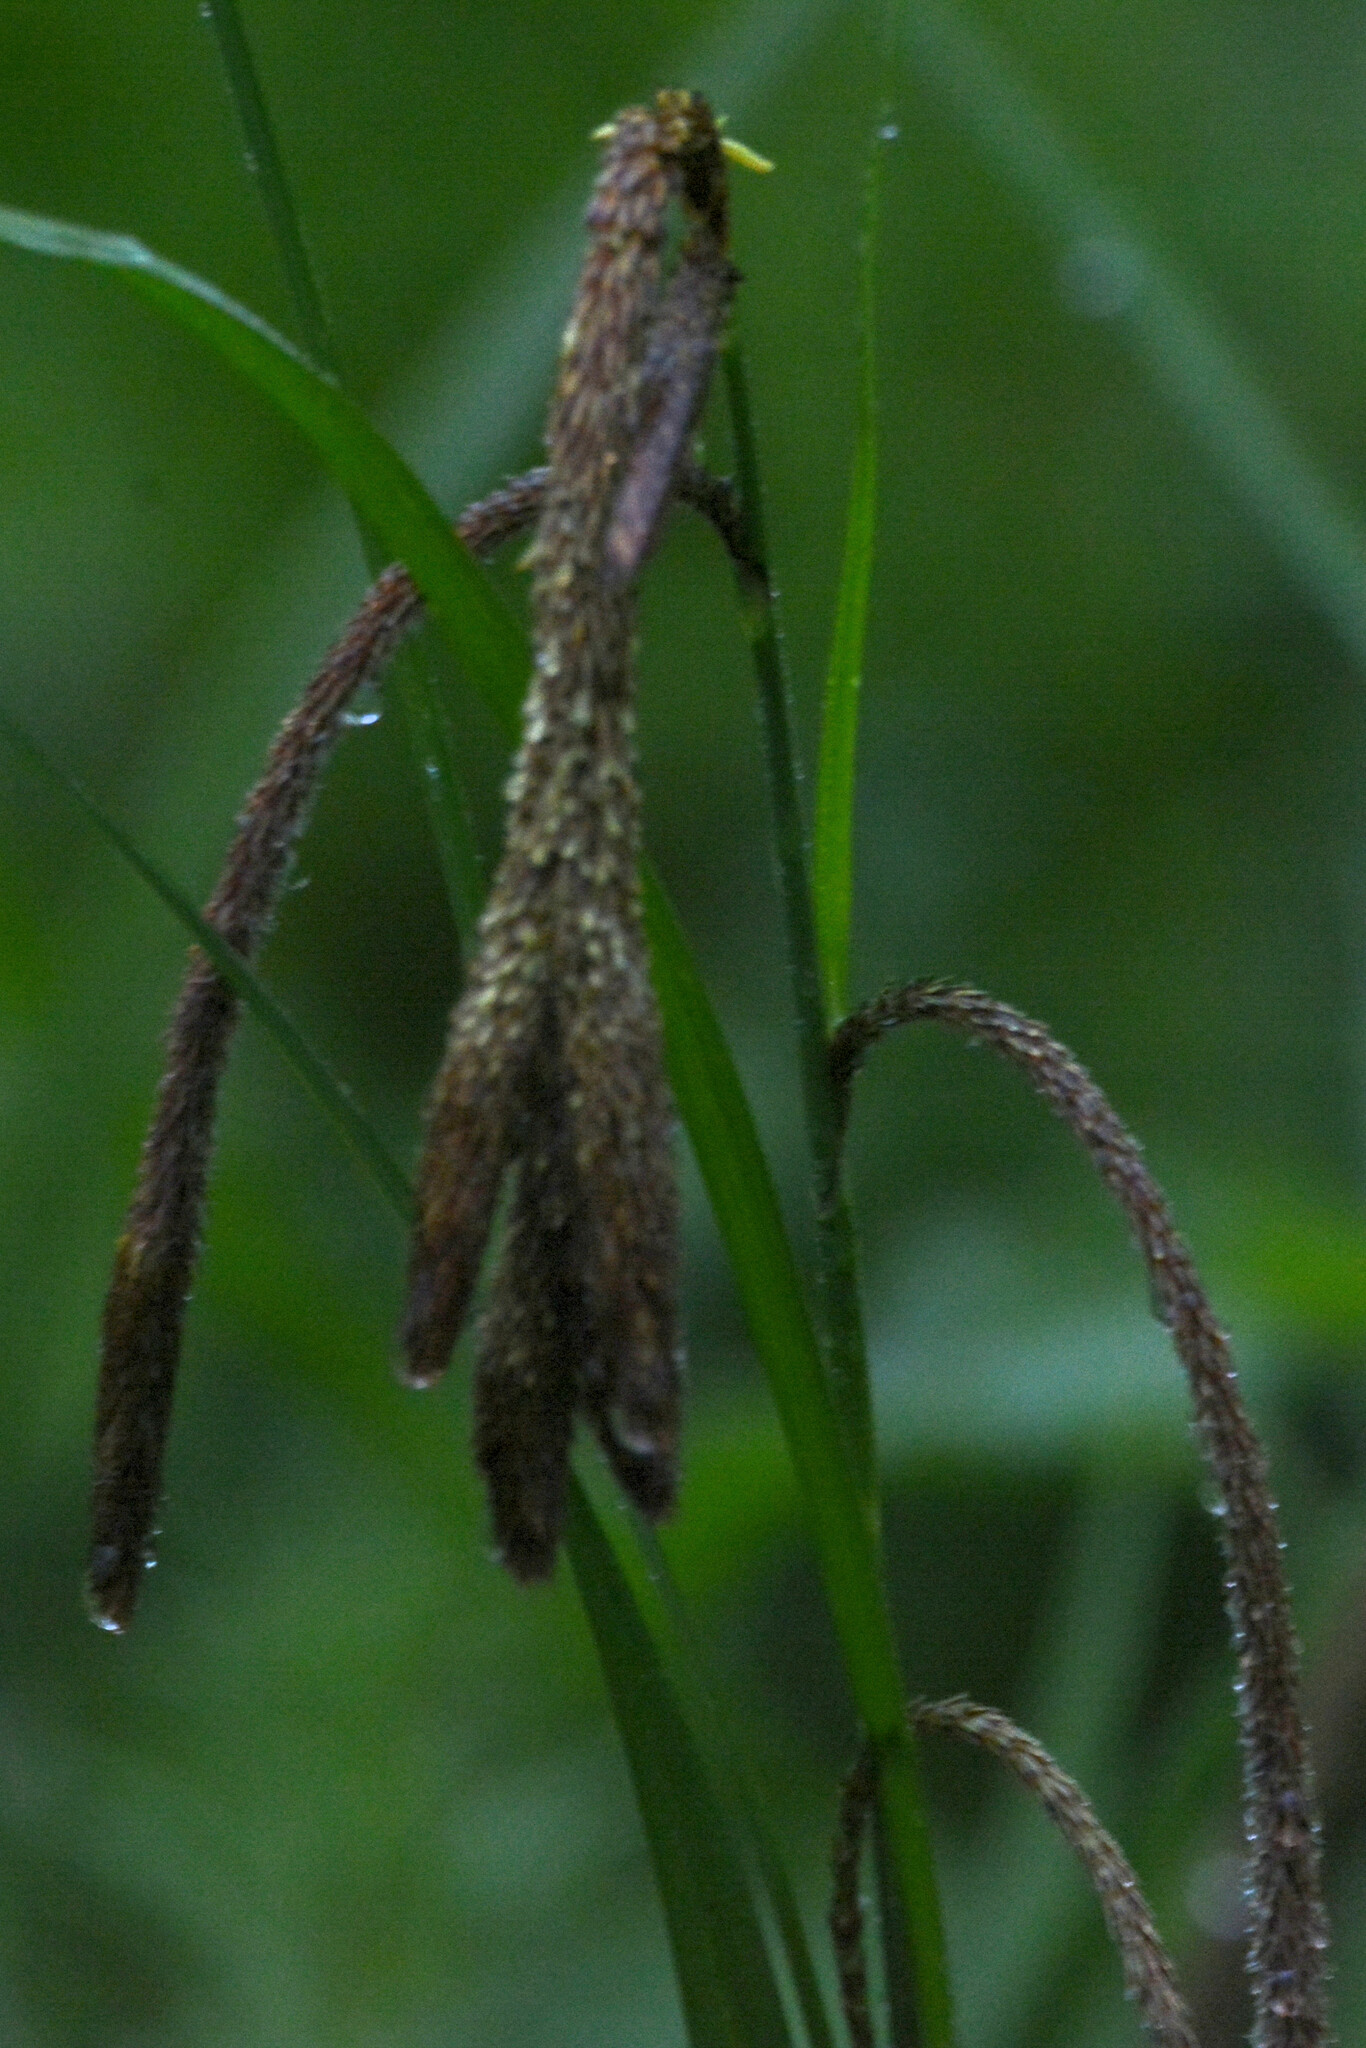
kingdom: Plantae
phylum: Tracheophyta
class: Liliopsida
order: Poales
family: Cyperaceae
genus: Carex
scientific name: Carex pendula
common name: Pendulous sedge
